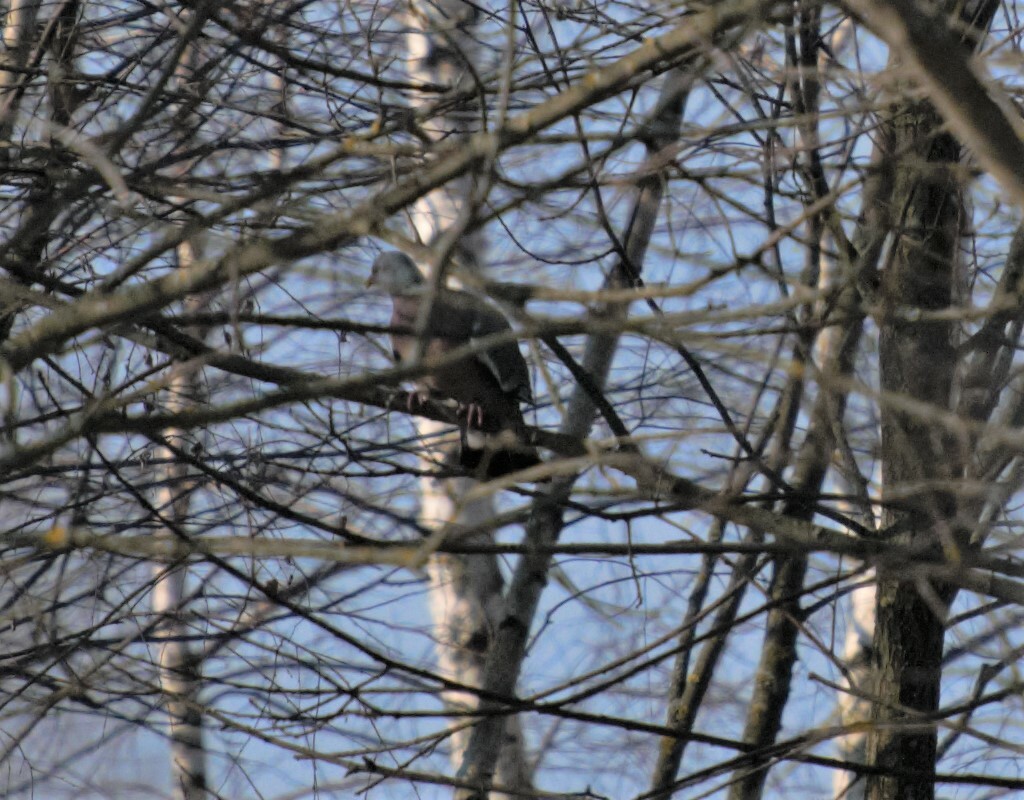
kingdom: Animalia
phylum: Chordata
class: Aves
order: Columbiformes
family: Columbidae
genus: Columba
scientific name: Columba palumbus
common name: Common wood pigeon
